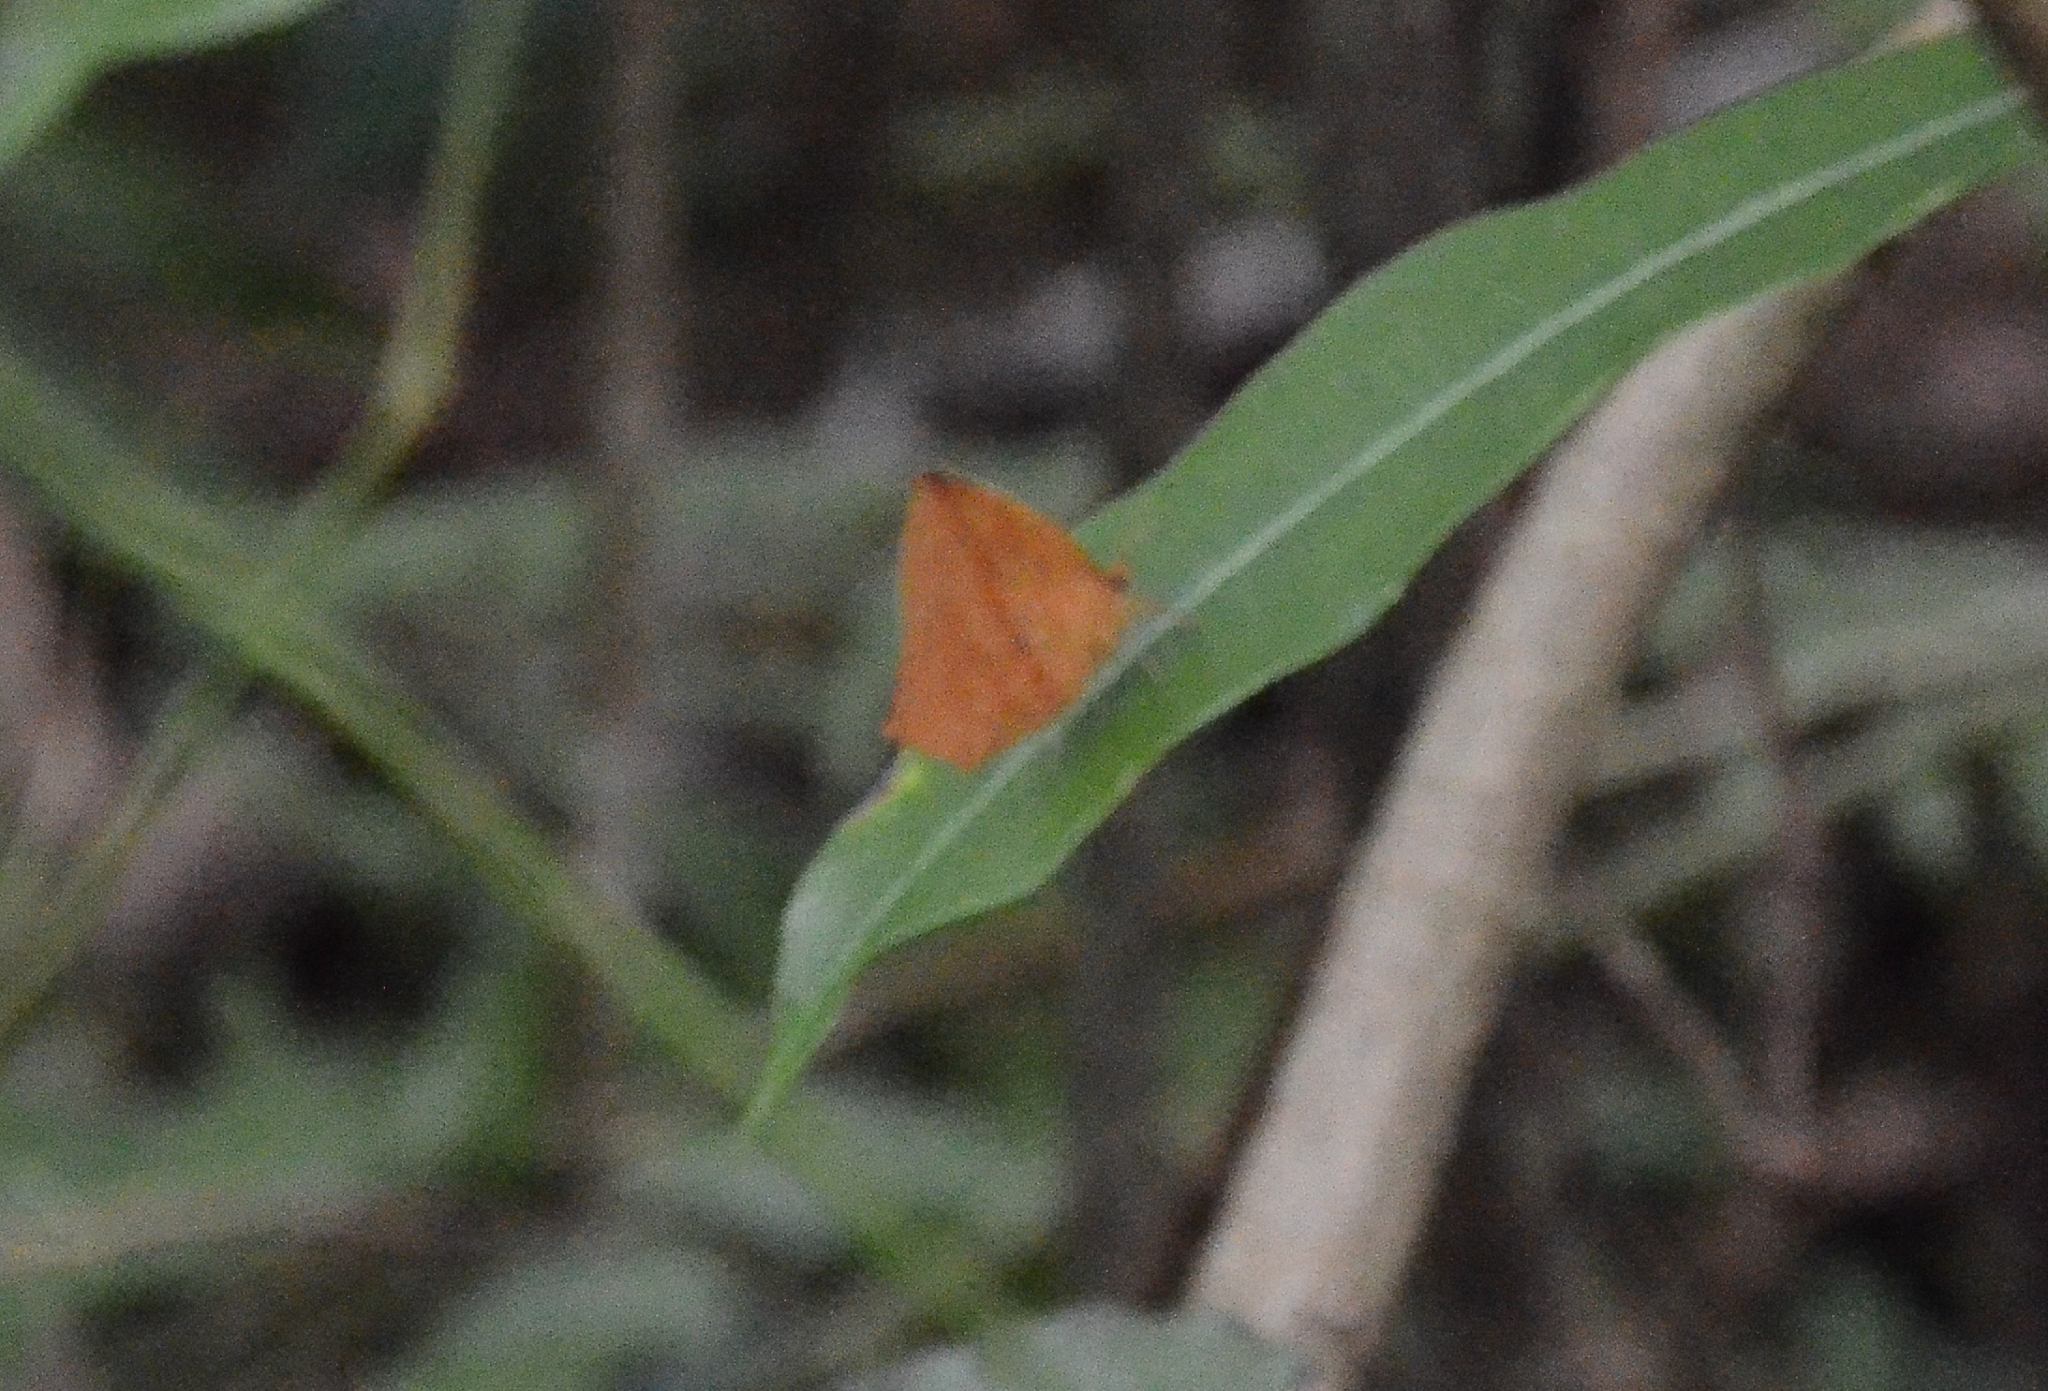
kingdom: Animalia
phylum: Arthropoda
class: Insecta
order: Lepidoptera
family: Callidulidae
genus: Tetragonus
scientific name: Tetragonus catamitus
